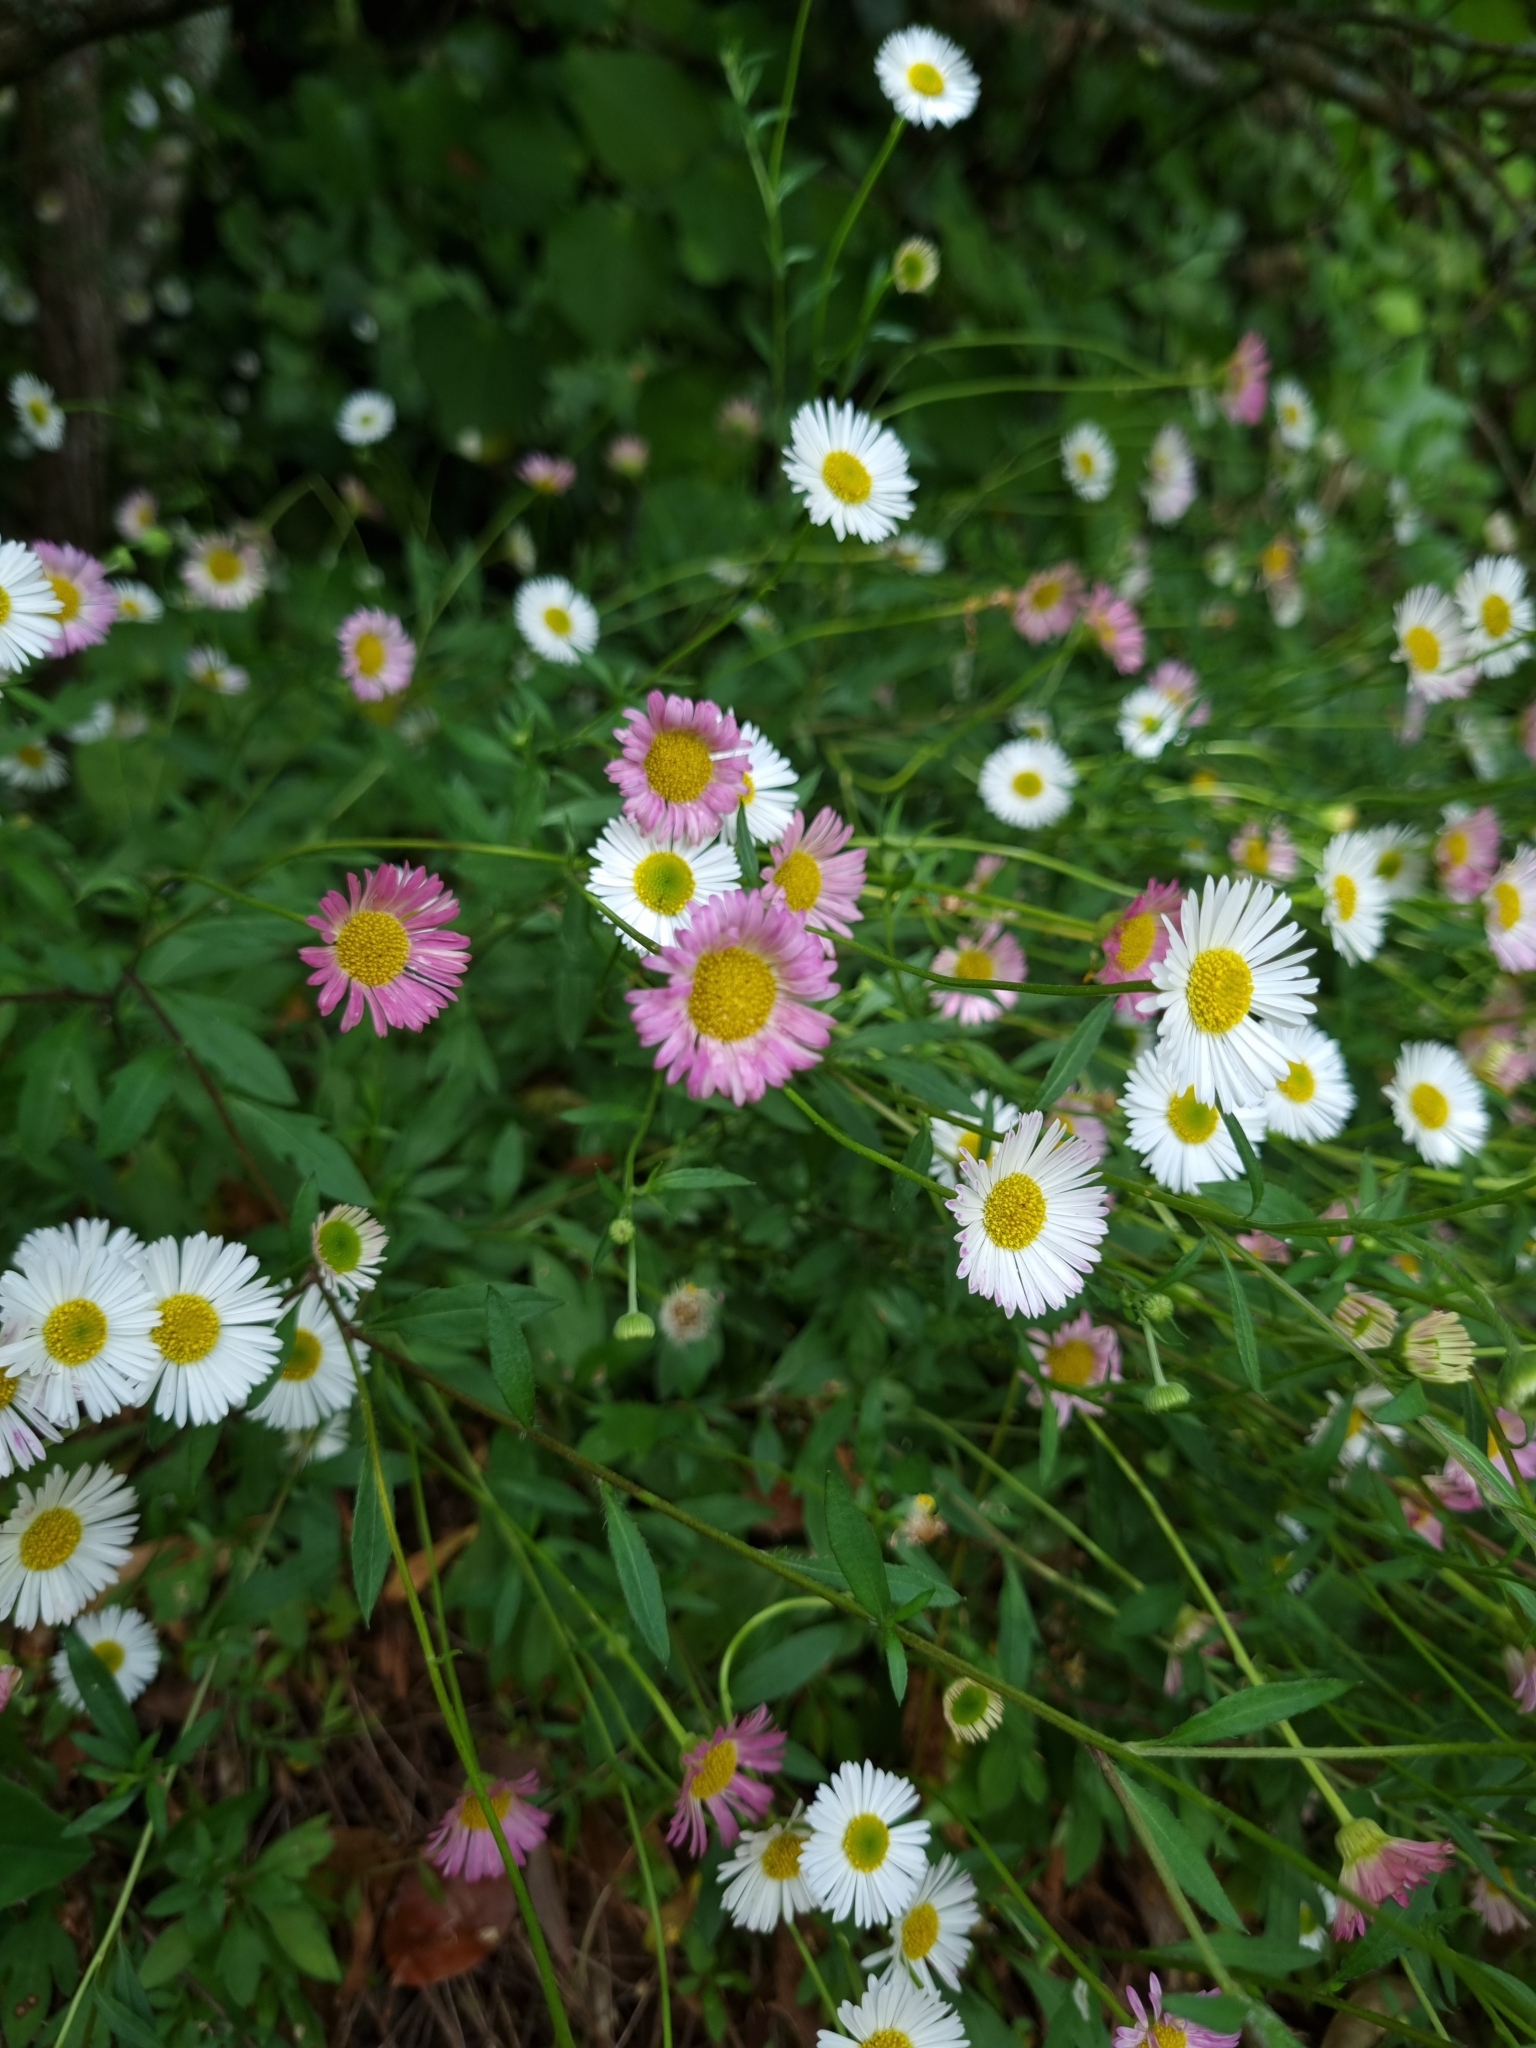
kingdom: Plantae
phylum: Tracheophyta
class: Magnoliopsida
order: Asterales
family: Asteraceae
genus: Erigeron
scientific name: Erigeron karvinskianus
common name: Mexican fleabane
